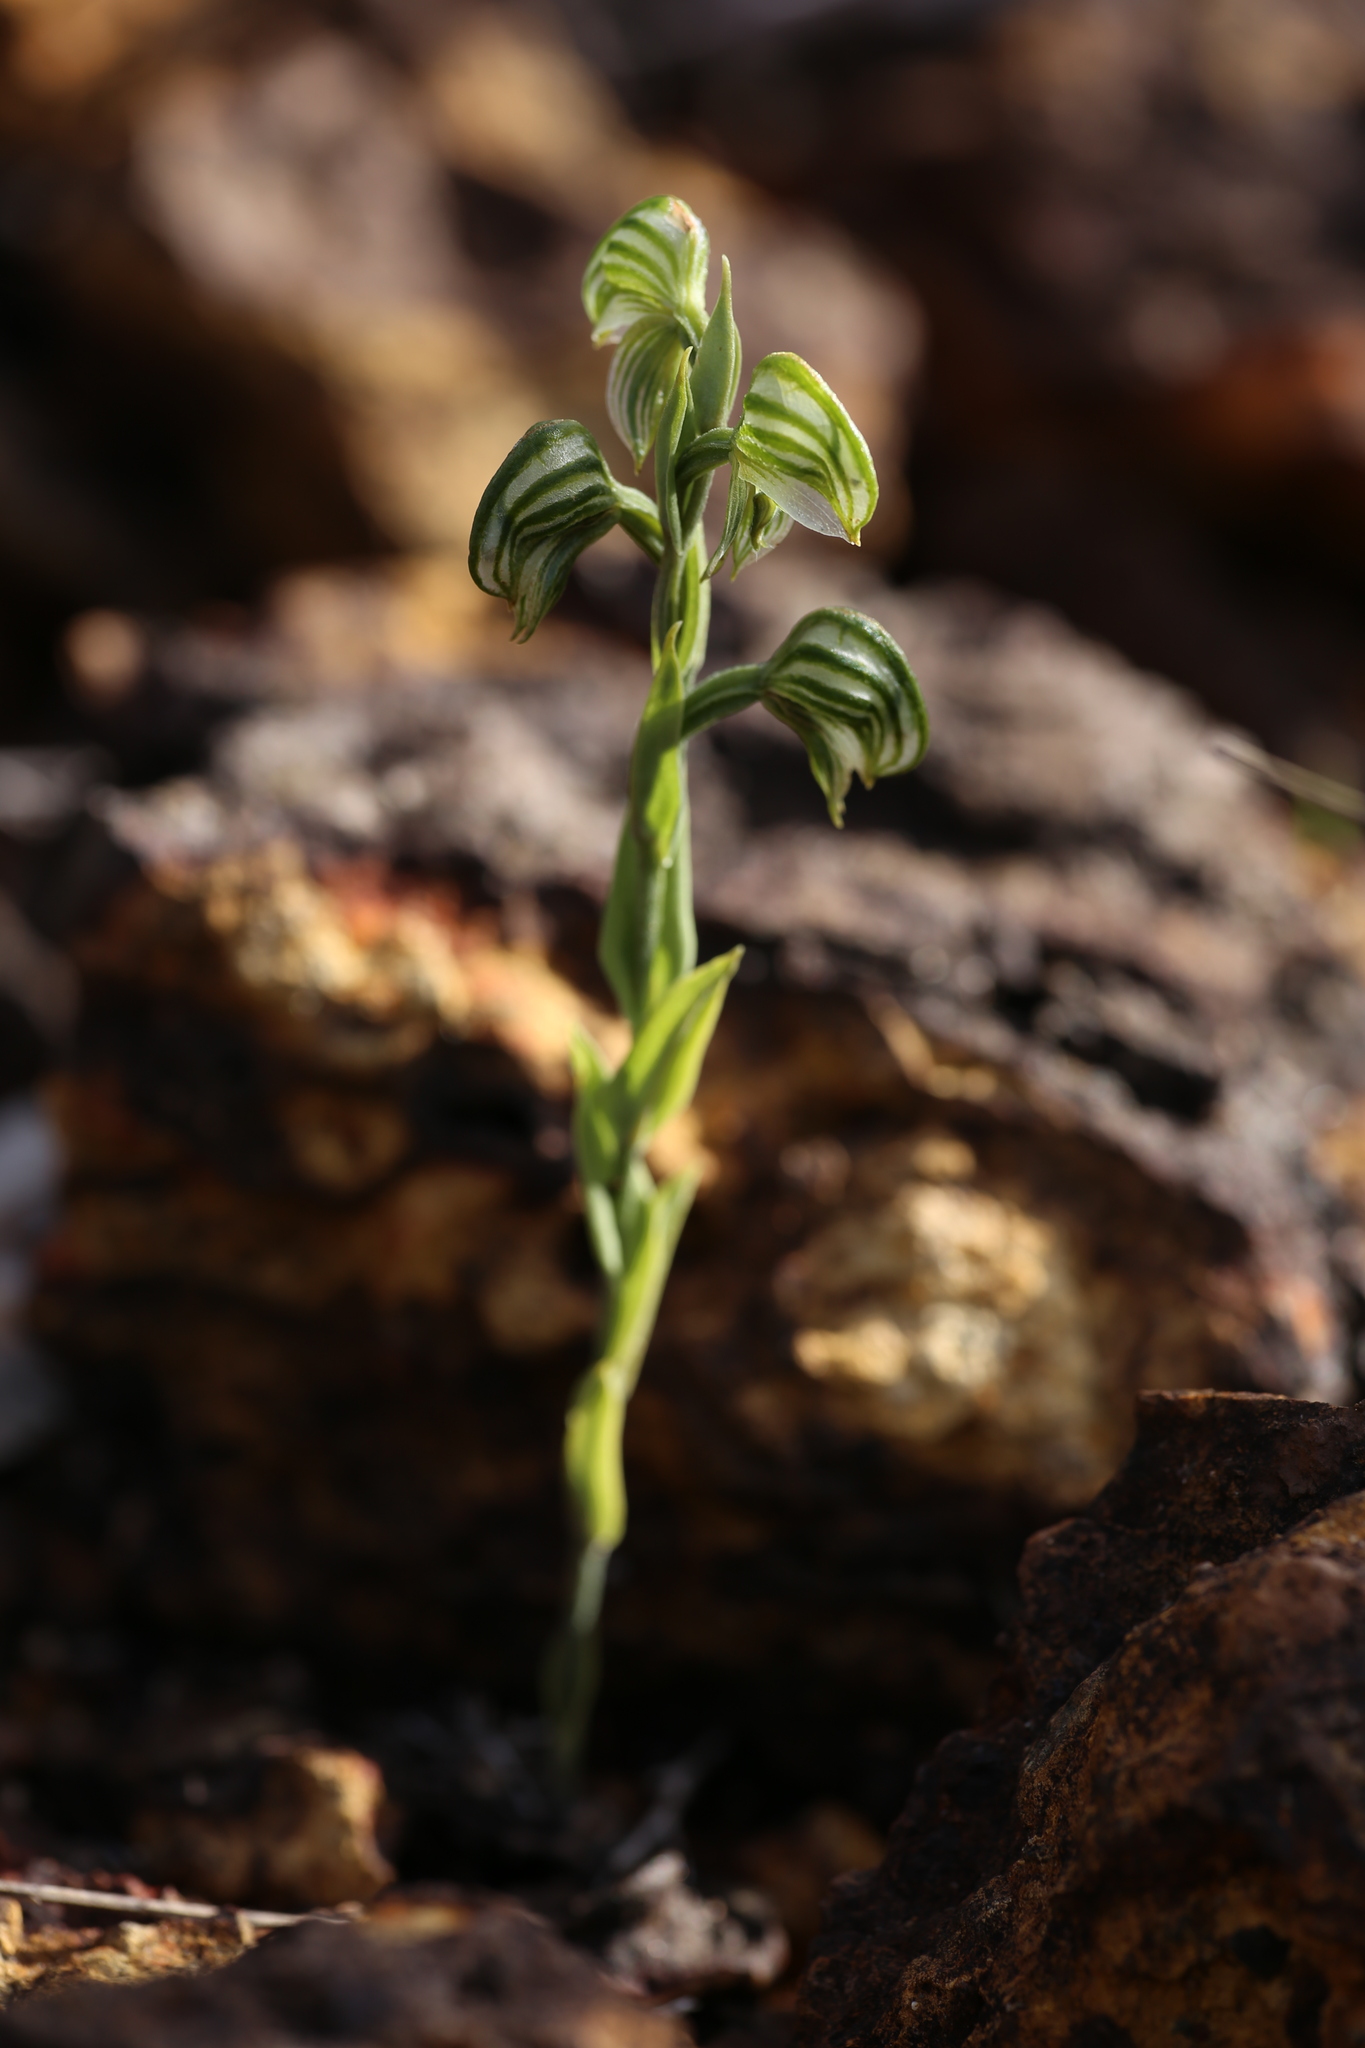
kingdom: Plantae
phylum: Tracheophyta
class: Liliopsida
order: Asparagales
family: Orchidaceae
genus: Pterostylis
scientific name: Pterostylis vittata
